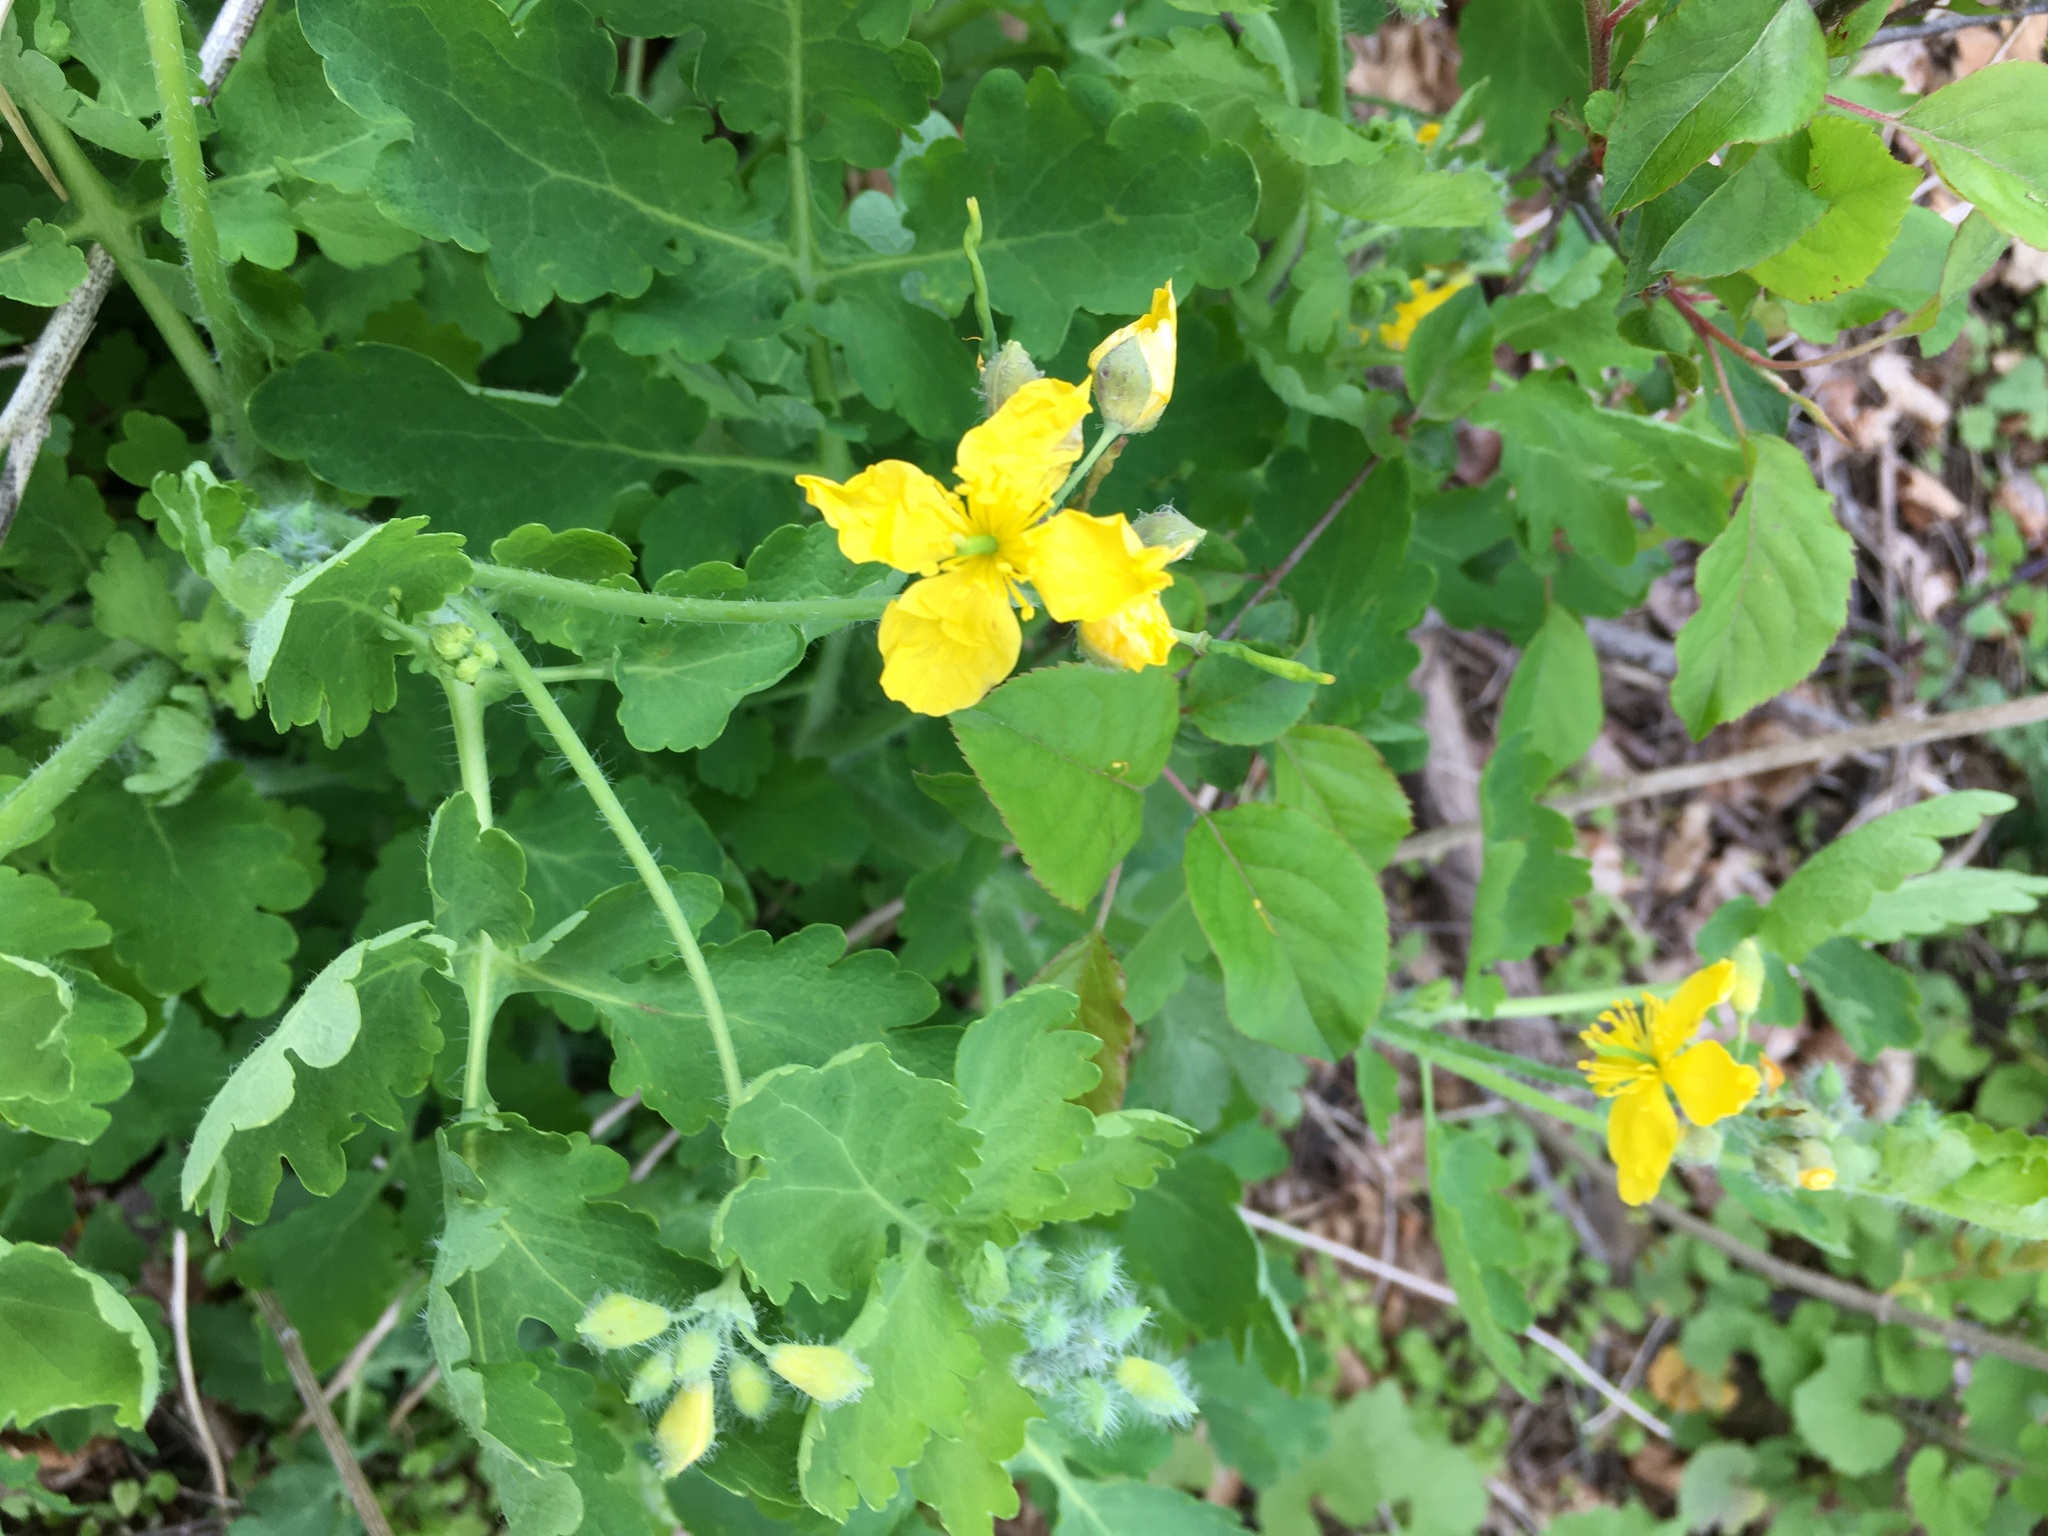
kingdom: Plantae
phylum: Tracheophyta
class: Magnoliopsida
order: Ranunculales
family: Papaveraceae
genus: Chelidonium
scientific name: Chelidonium majus
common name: Greater celandine
